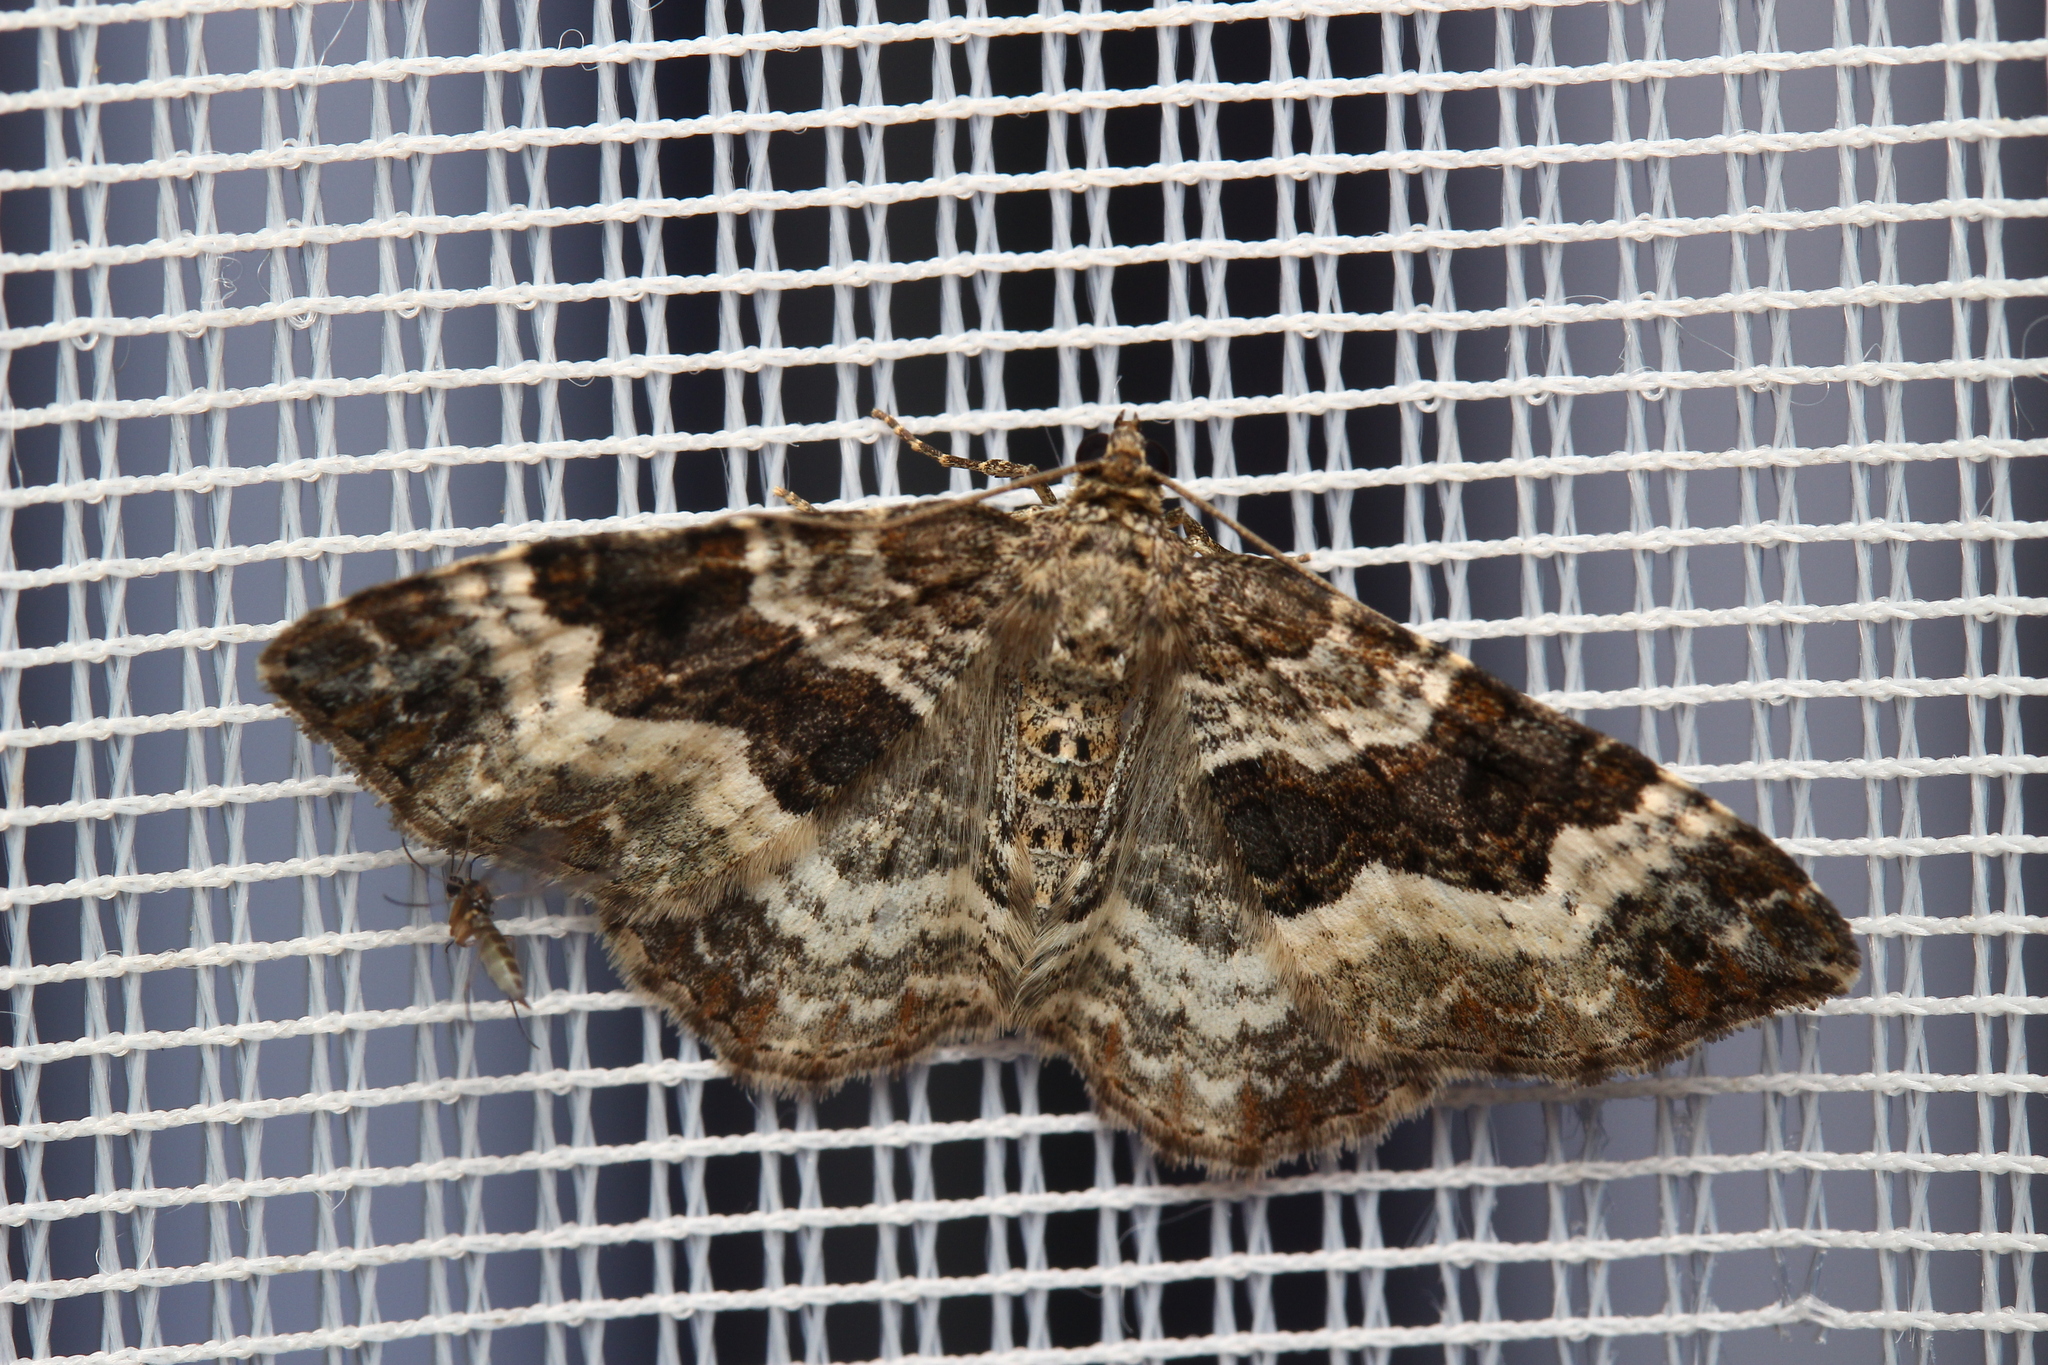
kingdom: Animalia
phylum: Arthropoda
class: Insecta
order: Lepidoptera
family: Geometridae
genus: Epirrhoe
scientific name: Epirrhoe alternata
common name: Common carpet
